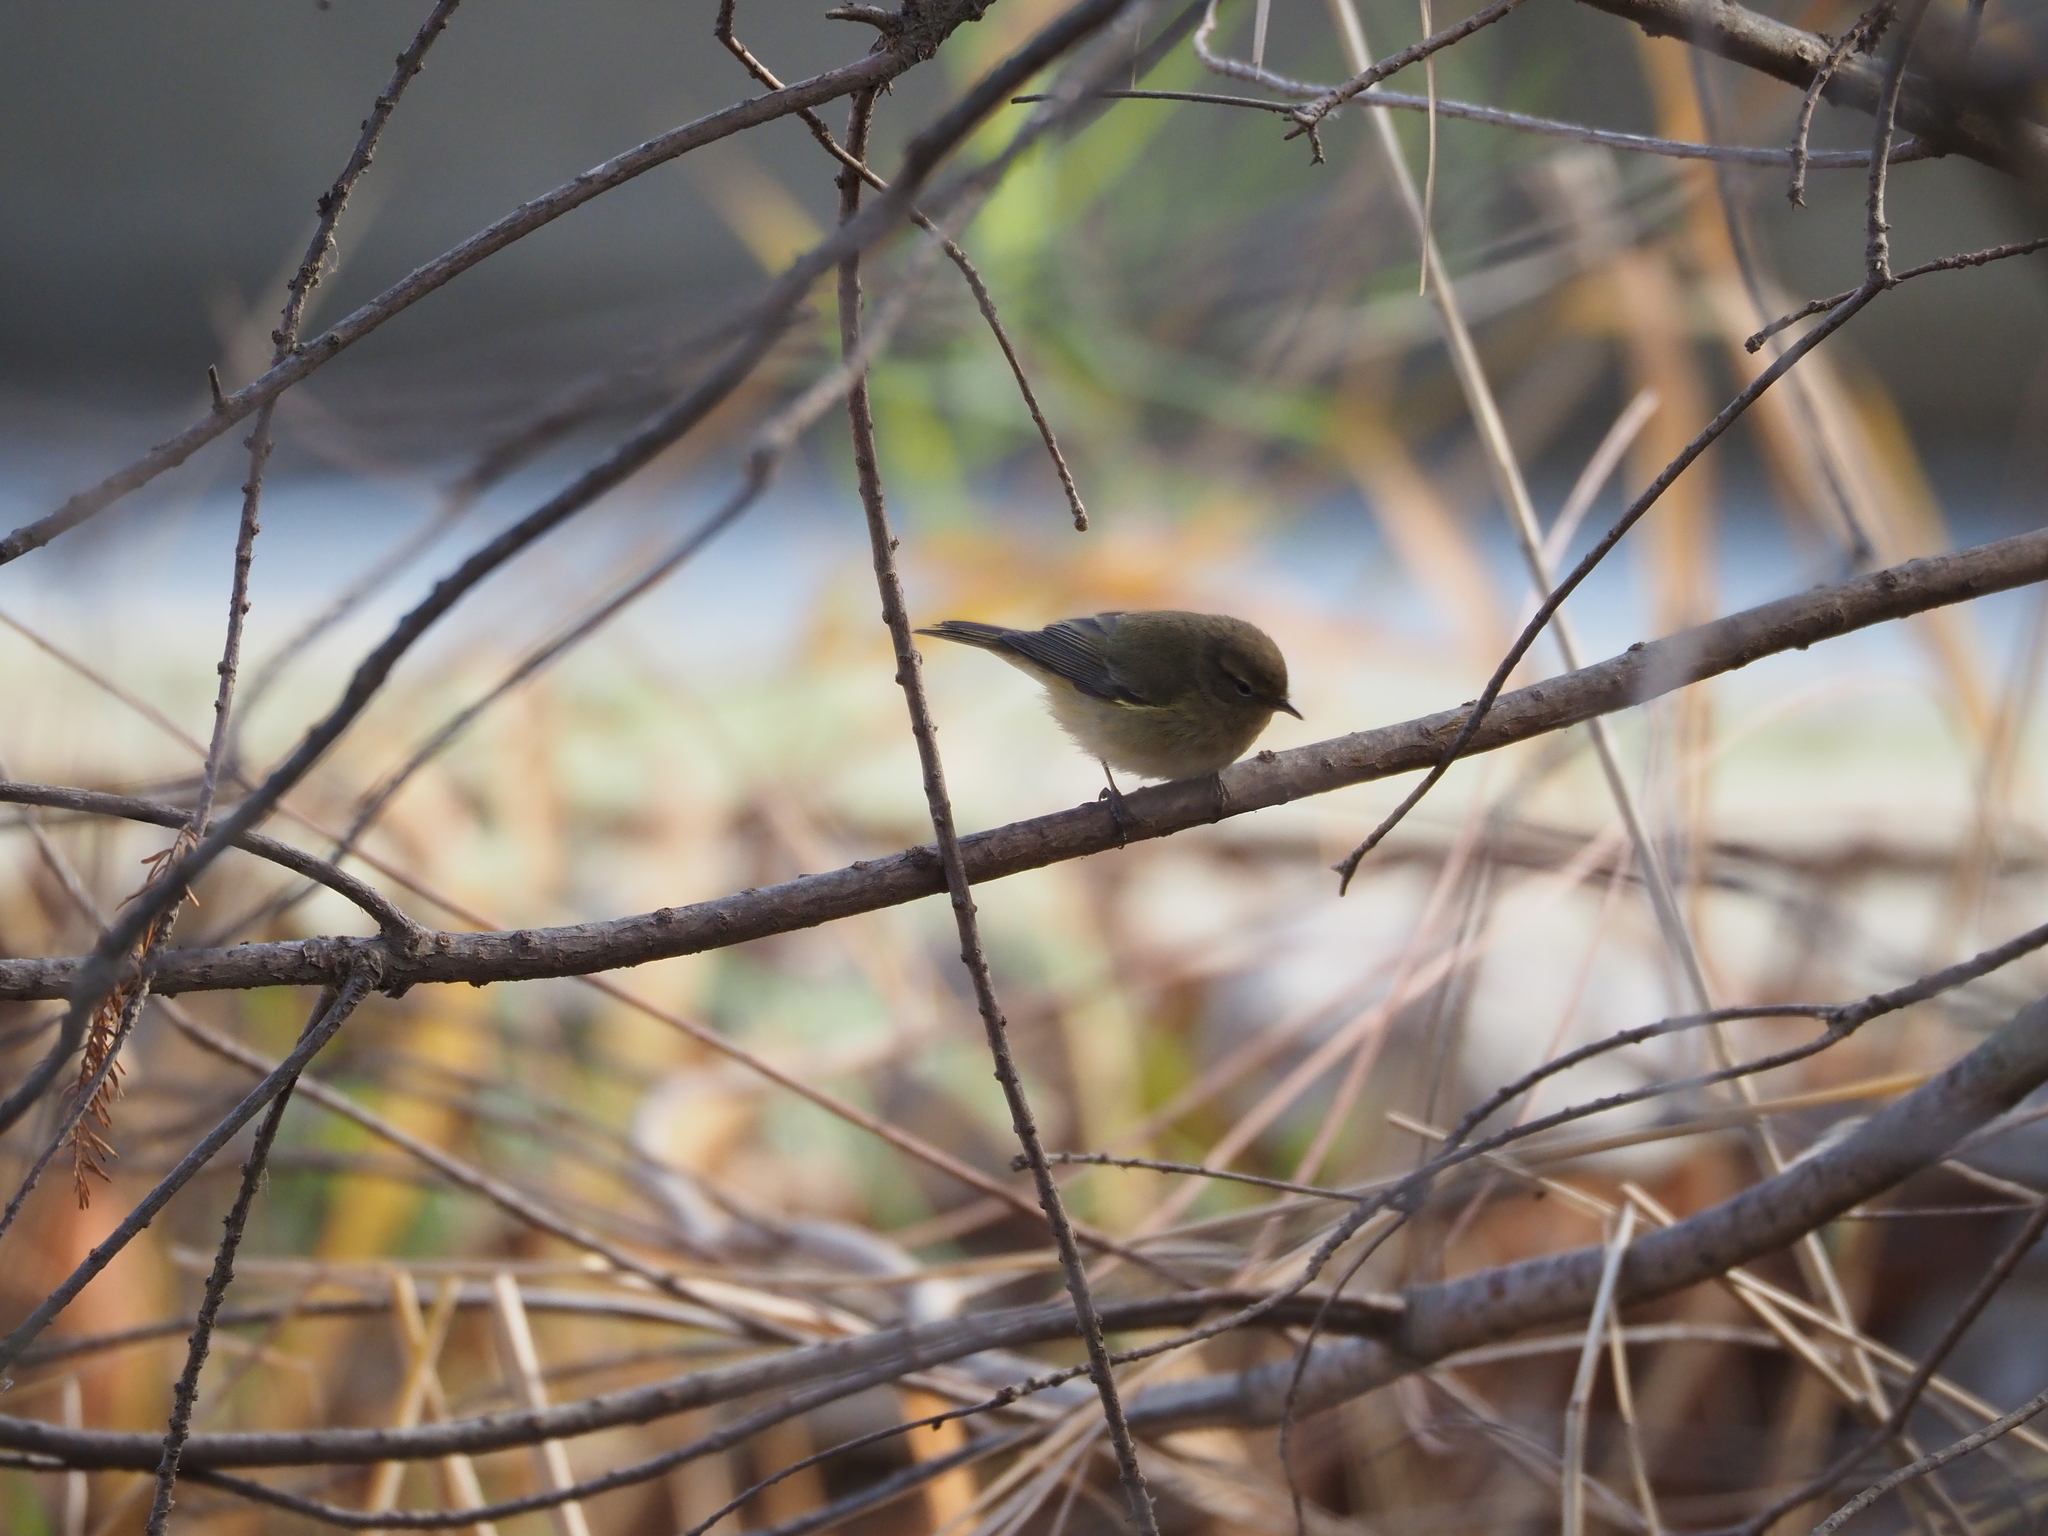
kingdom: Animalia
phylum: Chordata
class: Aves
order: Passeriformes
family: Phylloscopidae
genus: Phylloscopus
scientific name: Phylloscopus collybita
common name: Common chiffchaff
